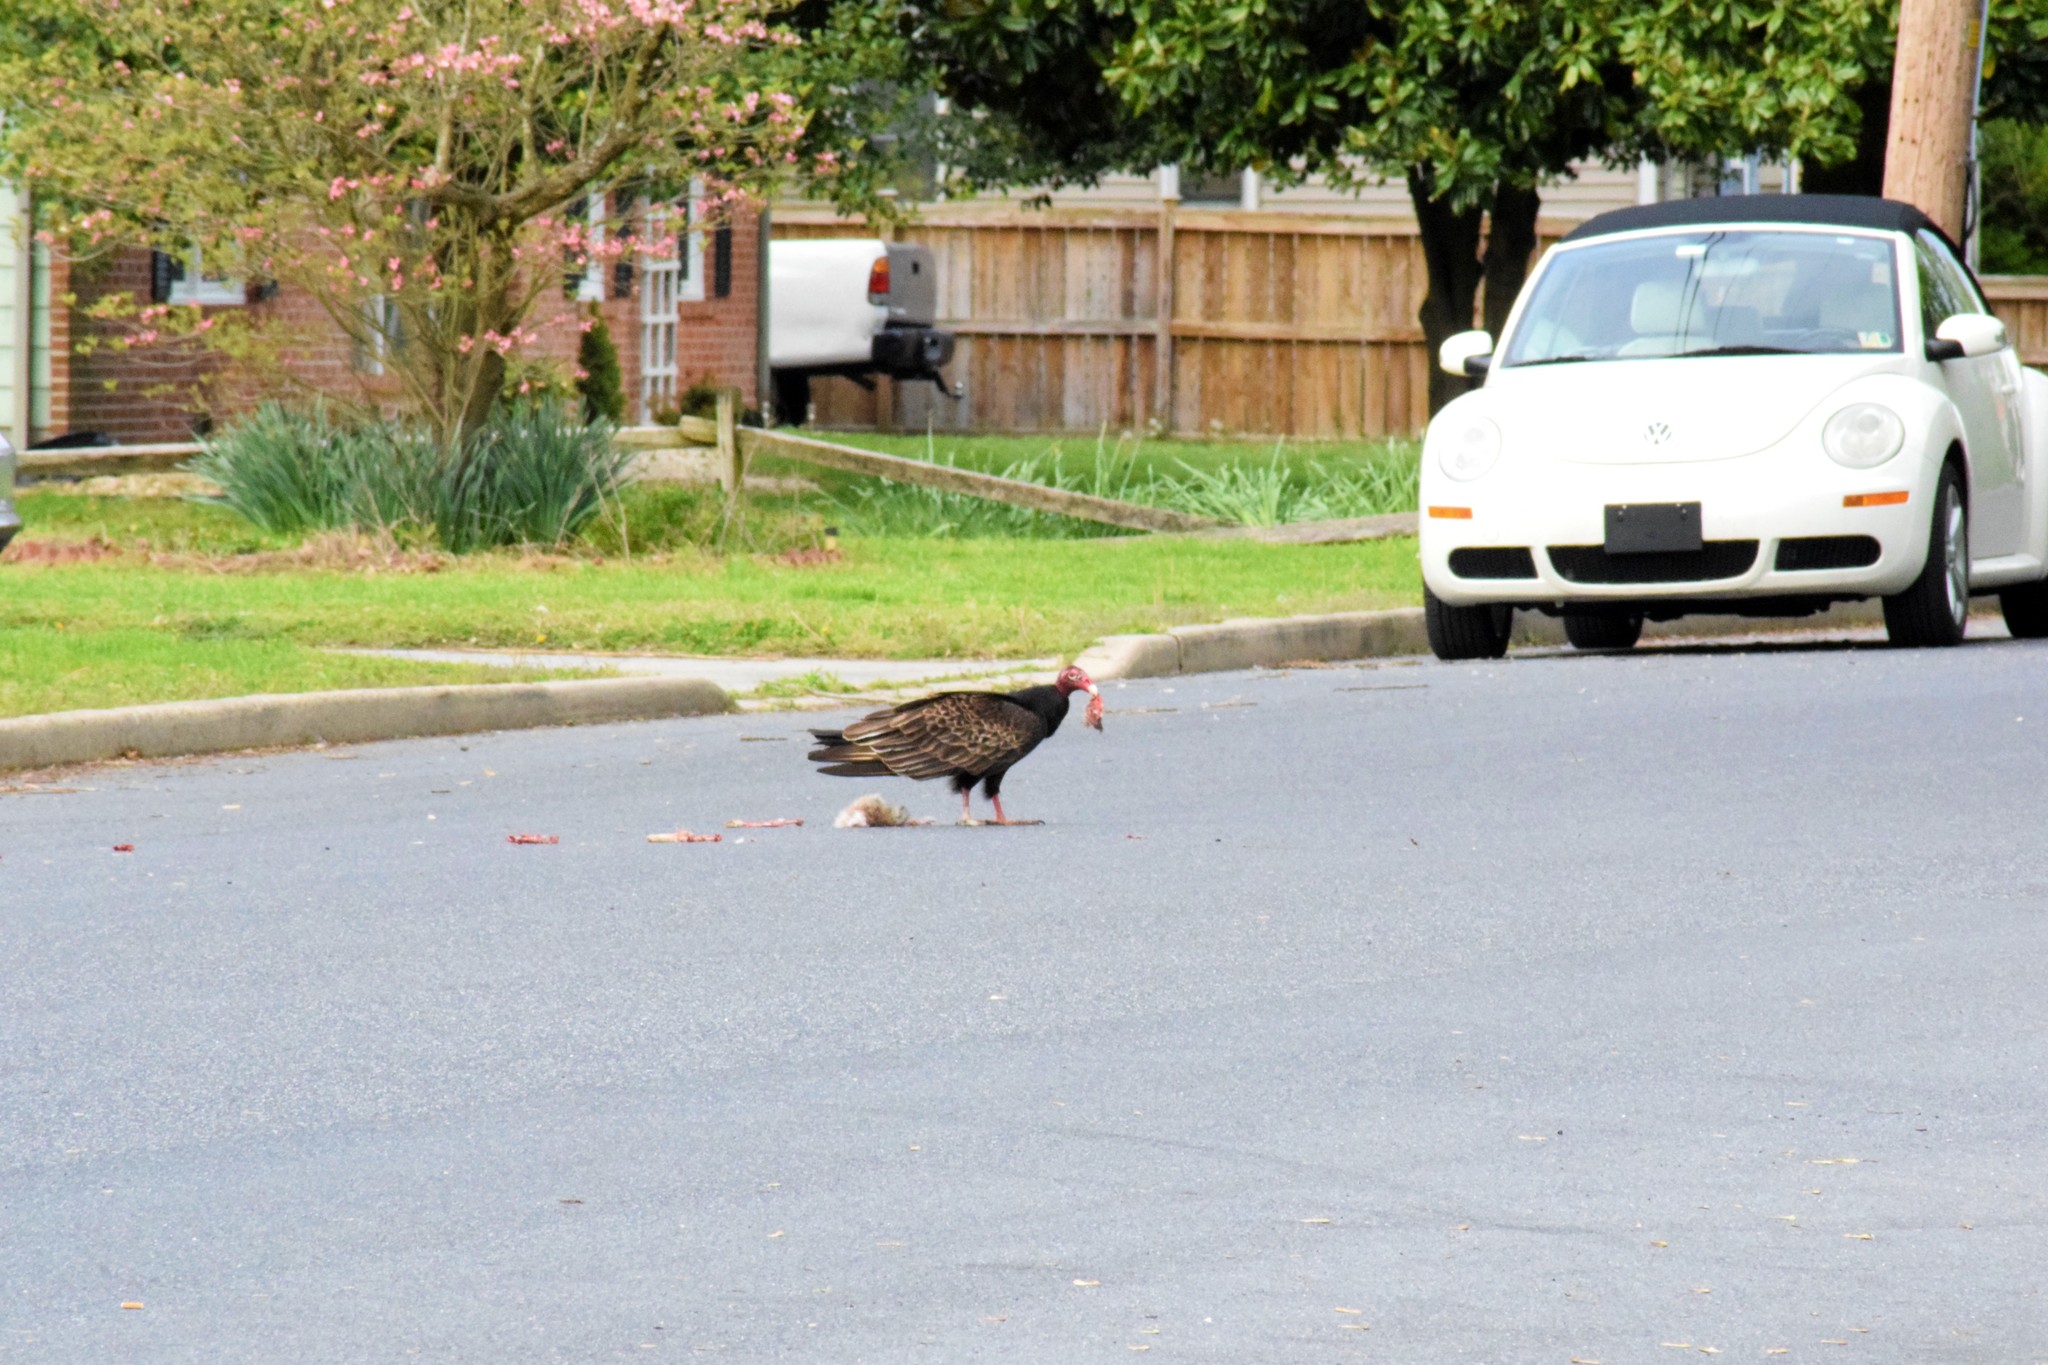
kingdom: Animalia
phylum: Chordata
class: Aves
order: Accipitriformes
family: Cathartidae
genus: Cathartes
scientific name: Cathartes aura
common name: Turkey vulture
